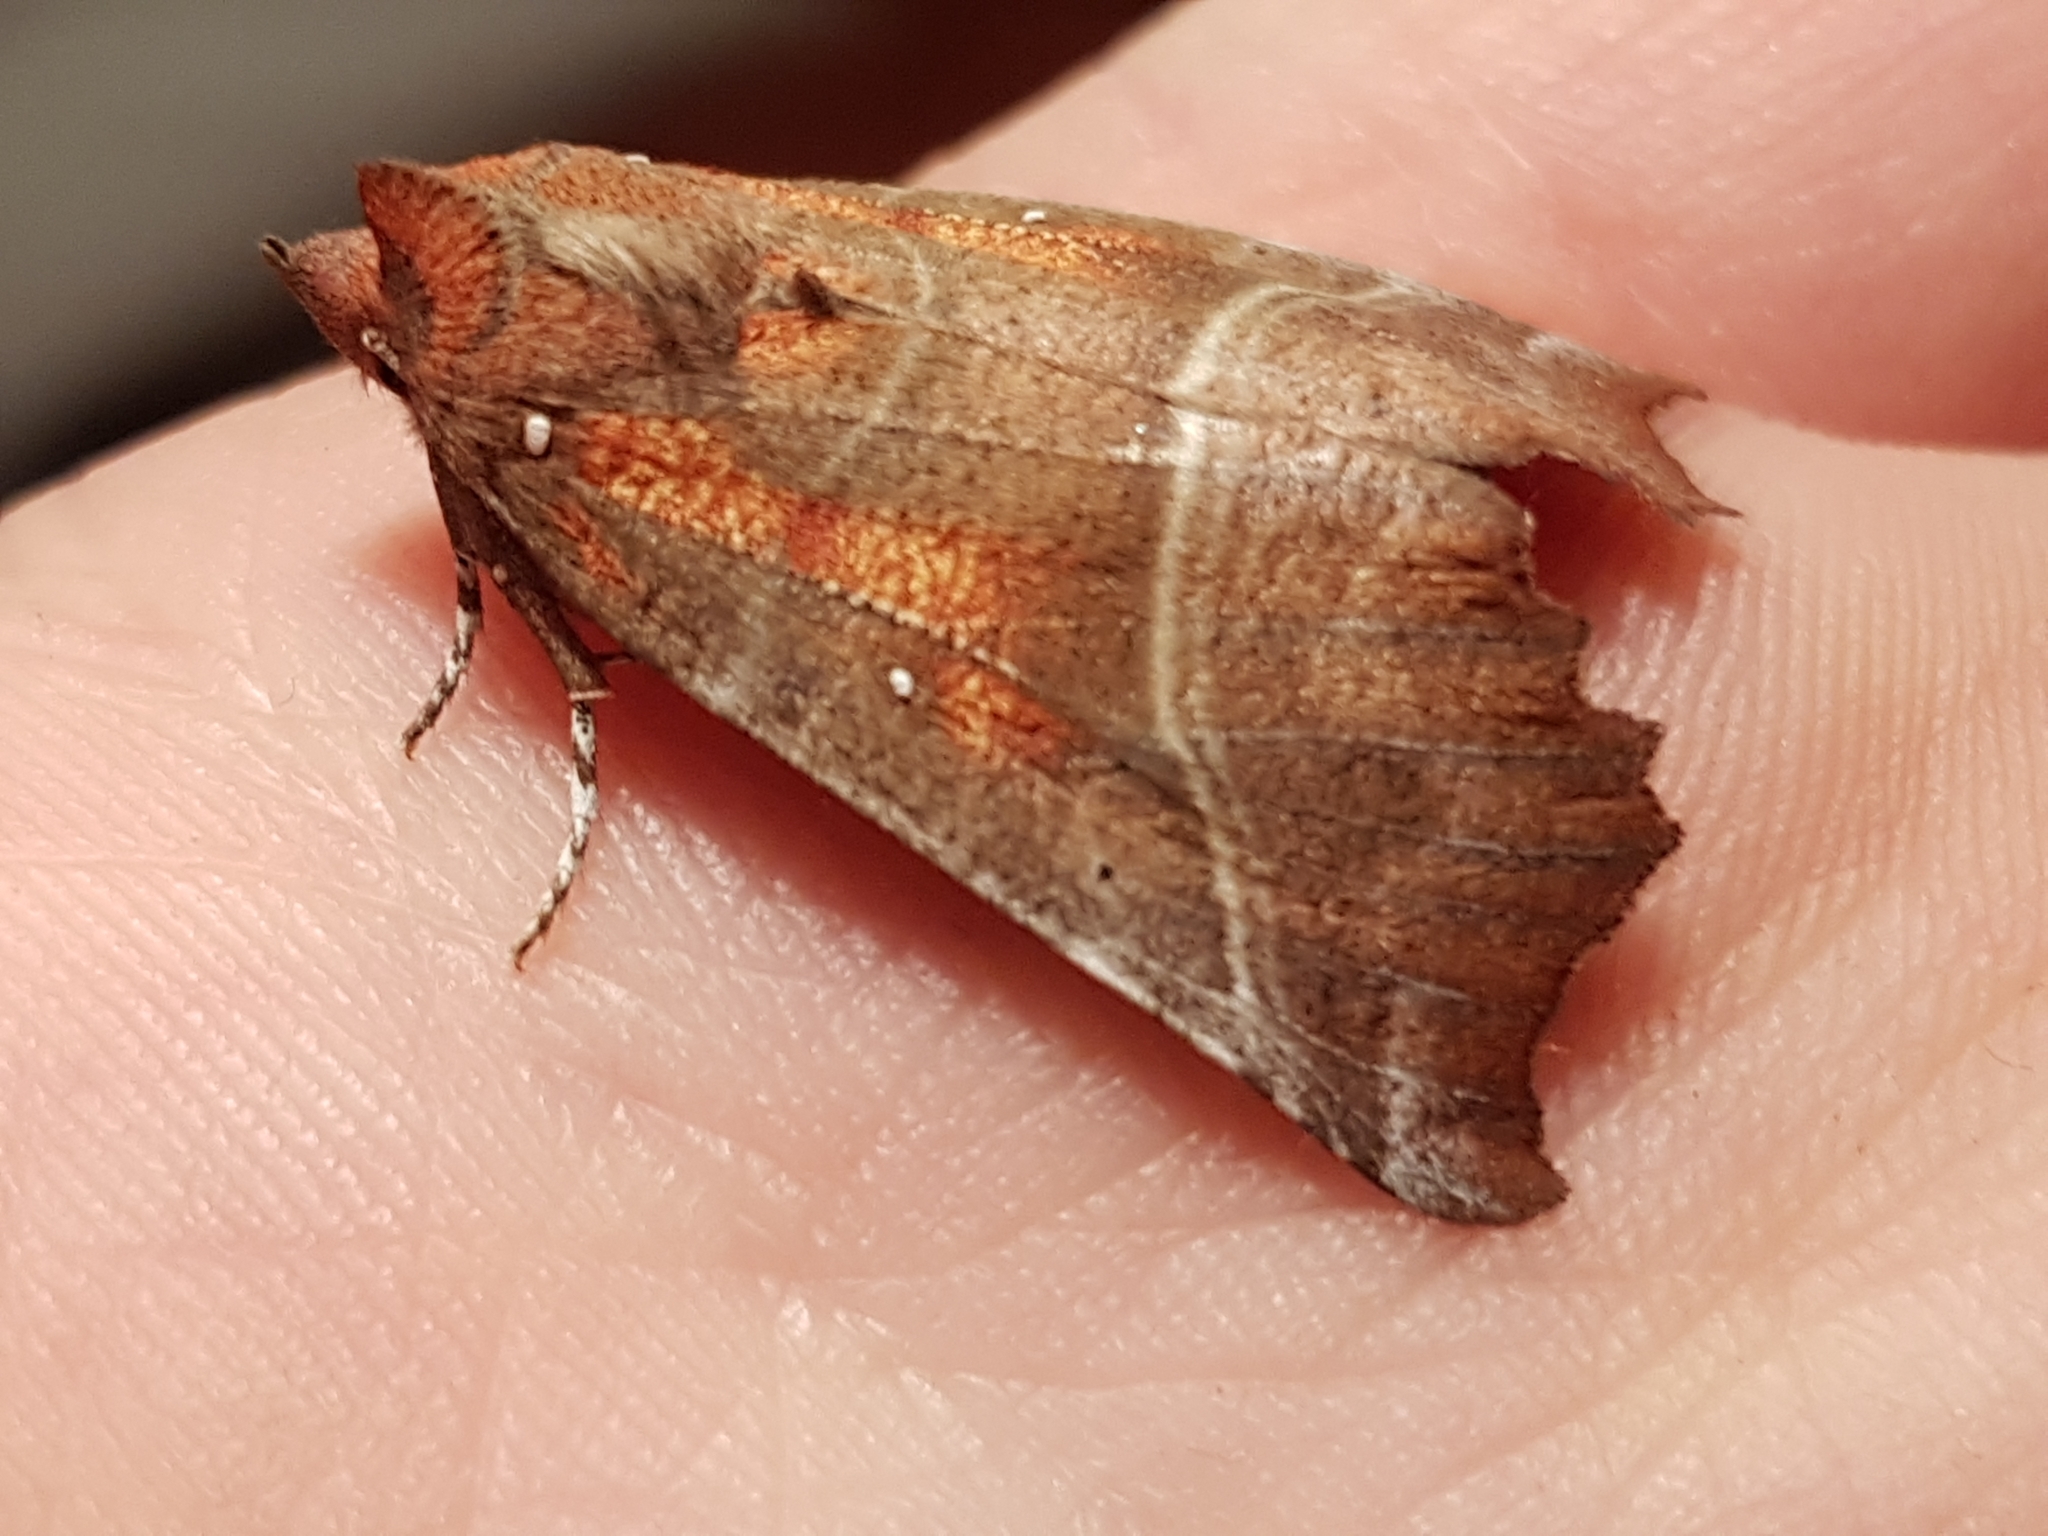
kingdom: Animalia
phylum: Arthropoda
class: Insecta
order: Lepidoptera
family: Erebidae
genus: Scoliopteryx
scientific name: Scoliopteryx libatrix
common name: Herald
